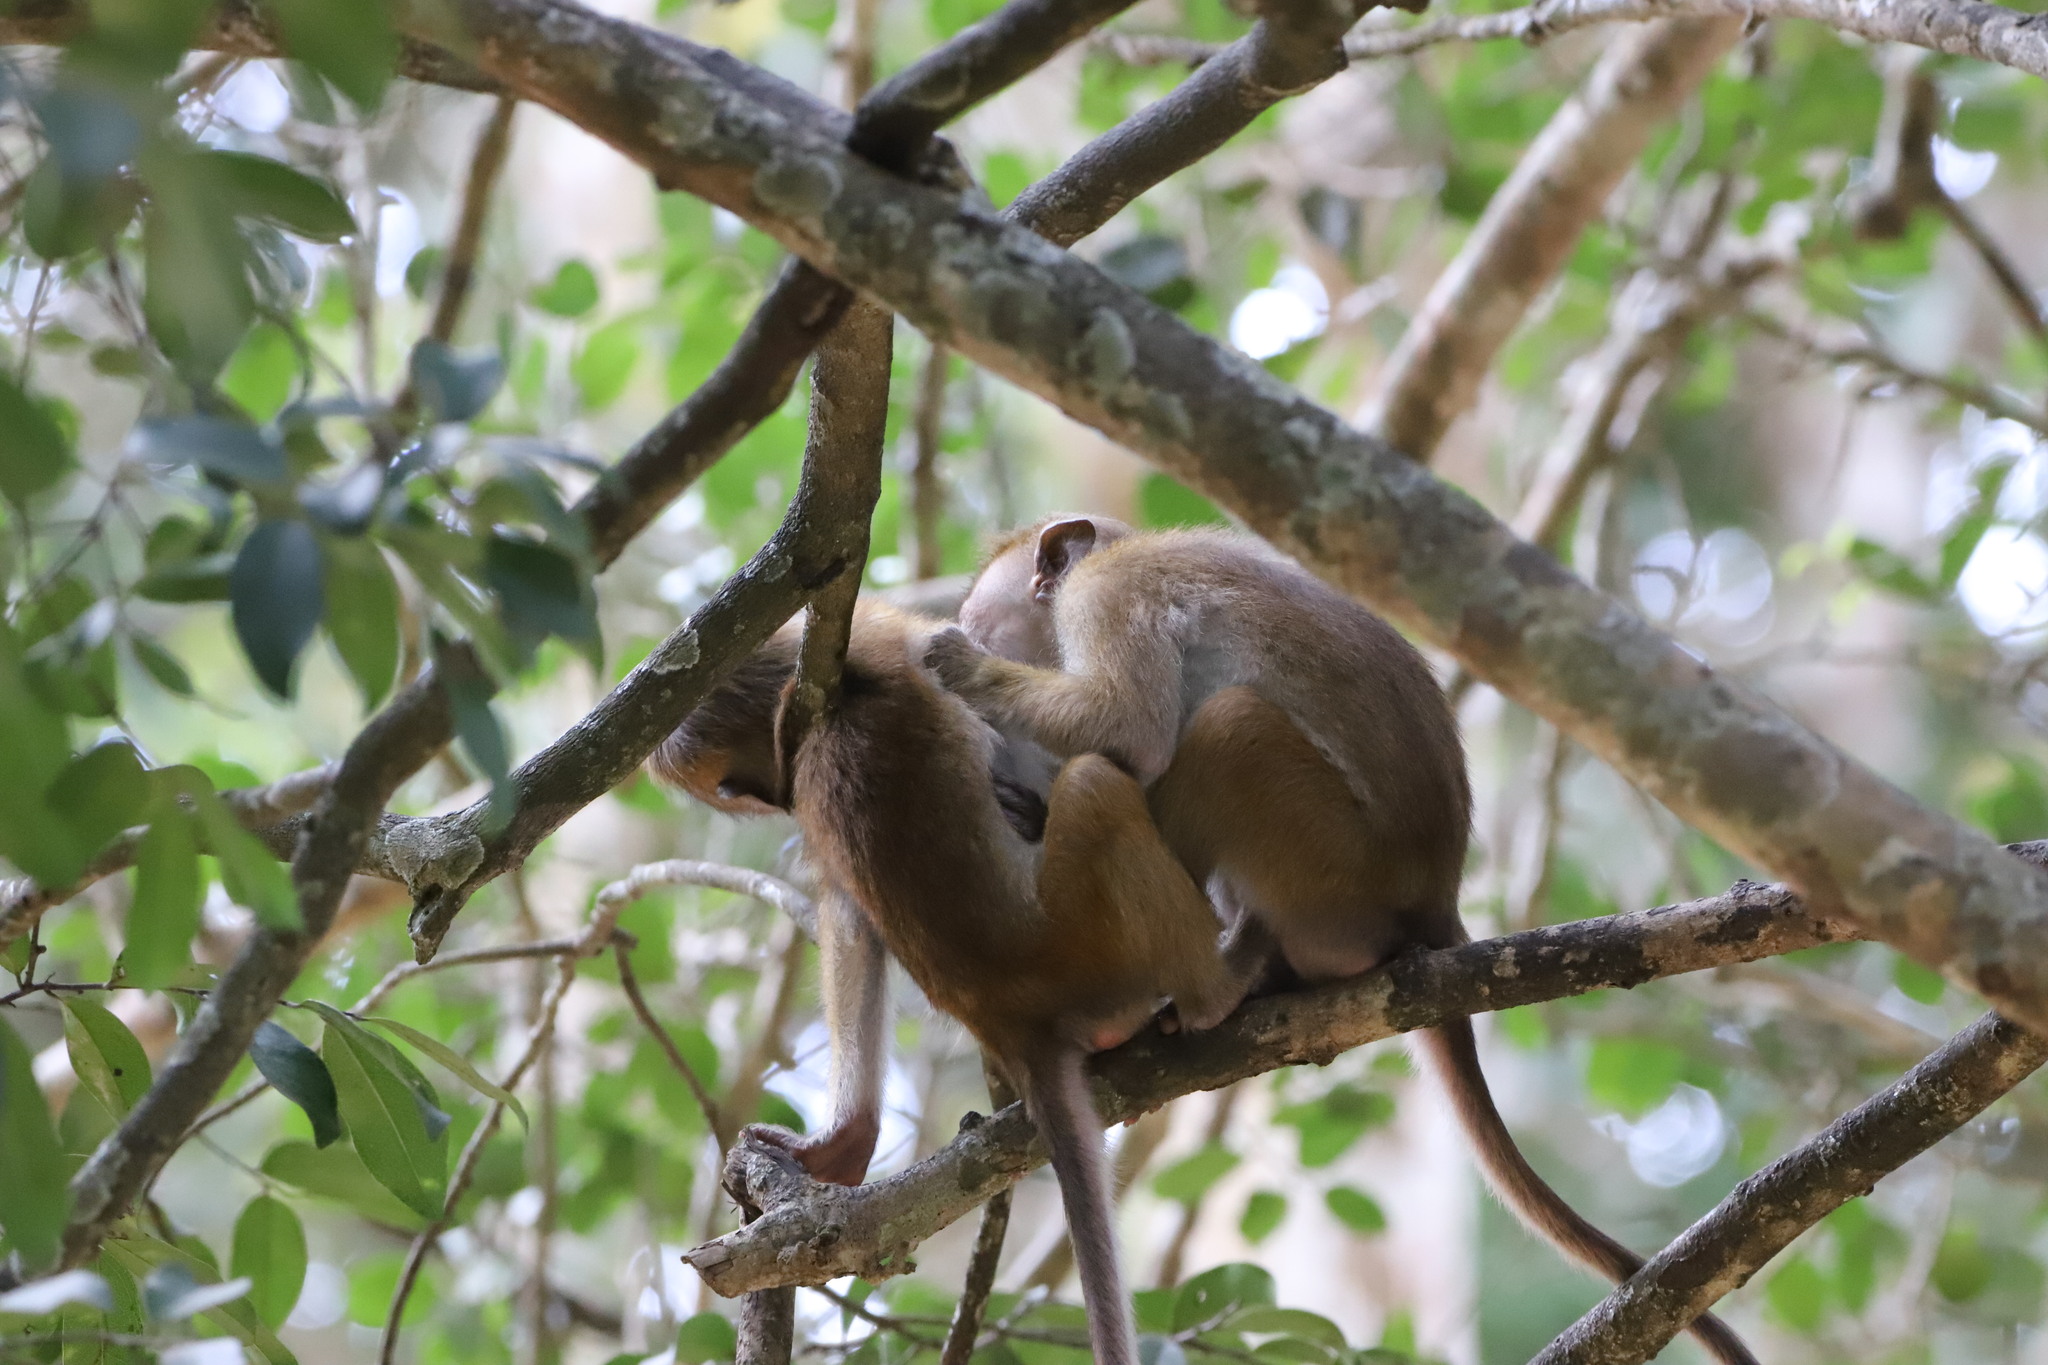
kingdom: Animalia
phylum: Chordata
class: Mammalia
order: Primates
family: Cercopithecidae
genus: Macaca
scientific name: Macaca sinica
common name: Toque macaque
